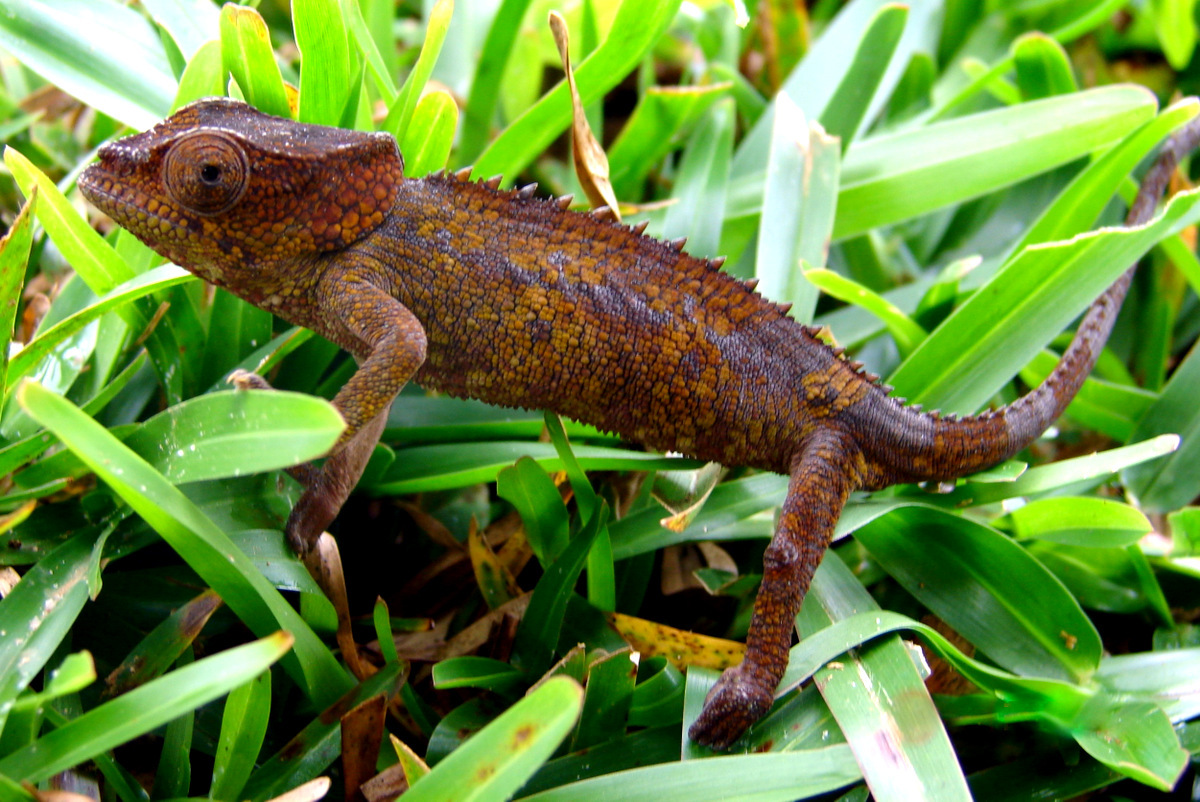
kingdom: Animalia
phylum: Chordata
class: Squamata
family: Chamaeleonidae
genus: Calumma
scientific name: Calumma brevicorne
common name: Short-horned chameleon
